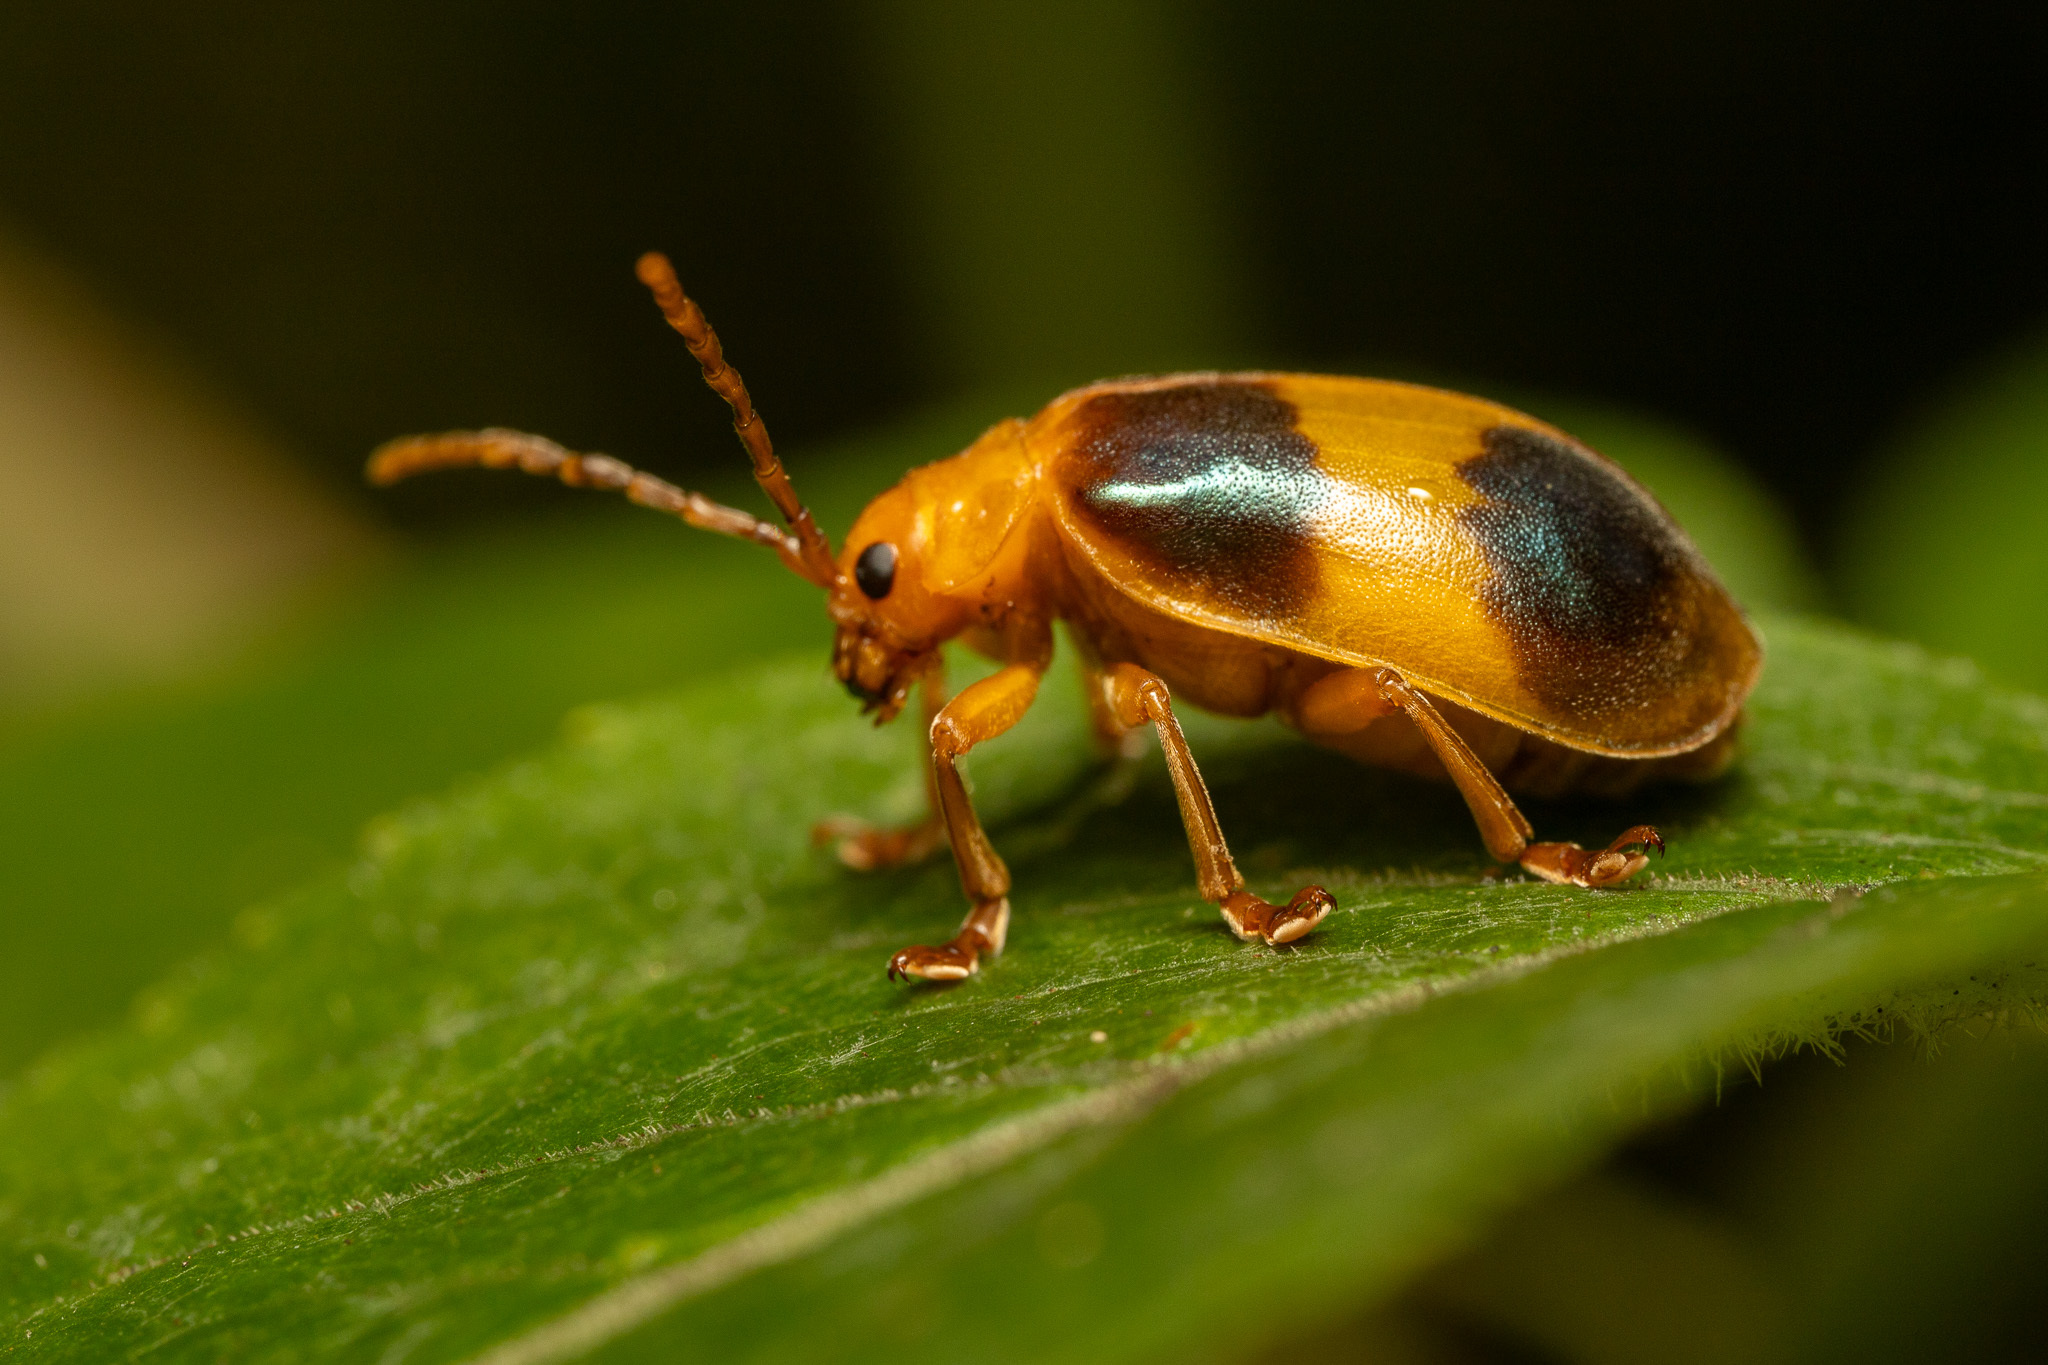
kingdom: Animalia
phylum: Arthropoda
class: Insecta
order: Coleoptera
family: Chrysomelidae
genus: Monocesta
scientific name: Monocesta coryli
